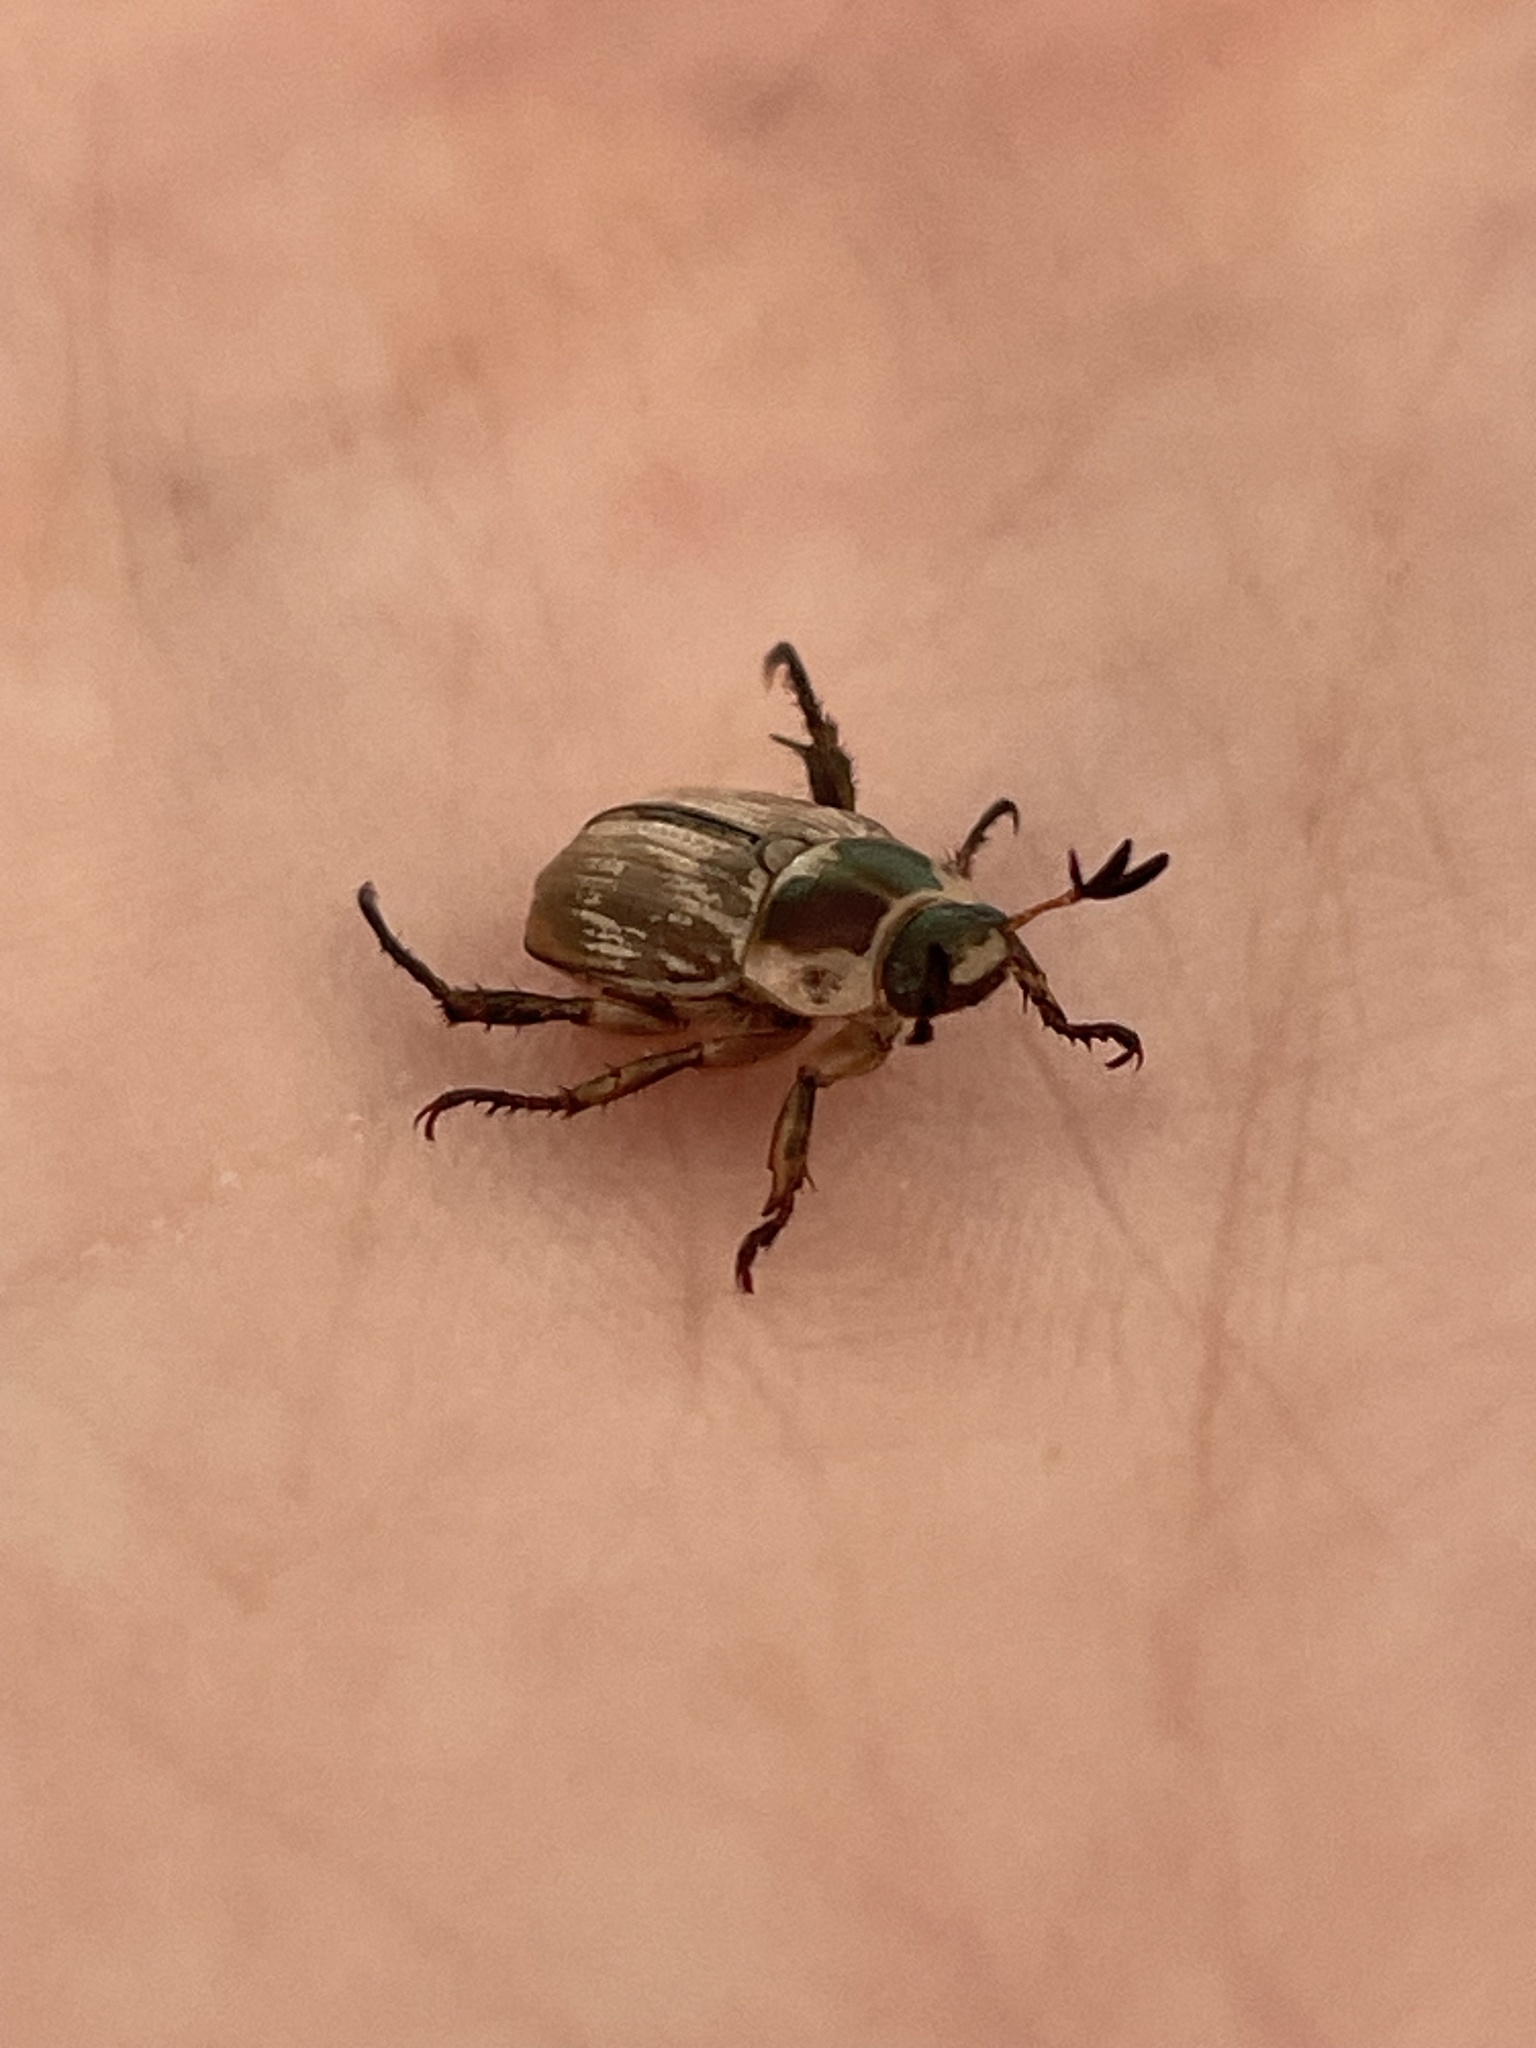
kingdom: Animalia
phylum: Arthropoda
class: Insecta
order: Coleoptera
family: Scarabaeidae
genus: Exomala
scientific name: Exomala orientalis
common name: Oriental beetle
